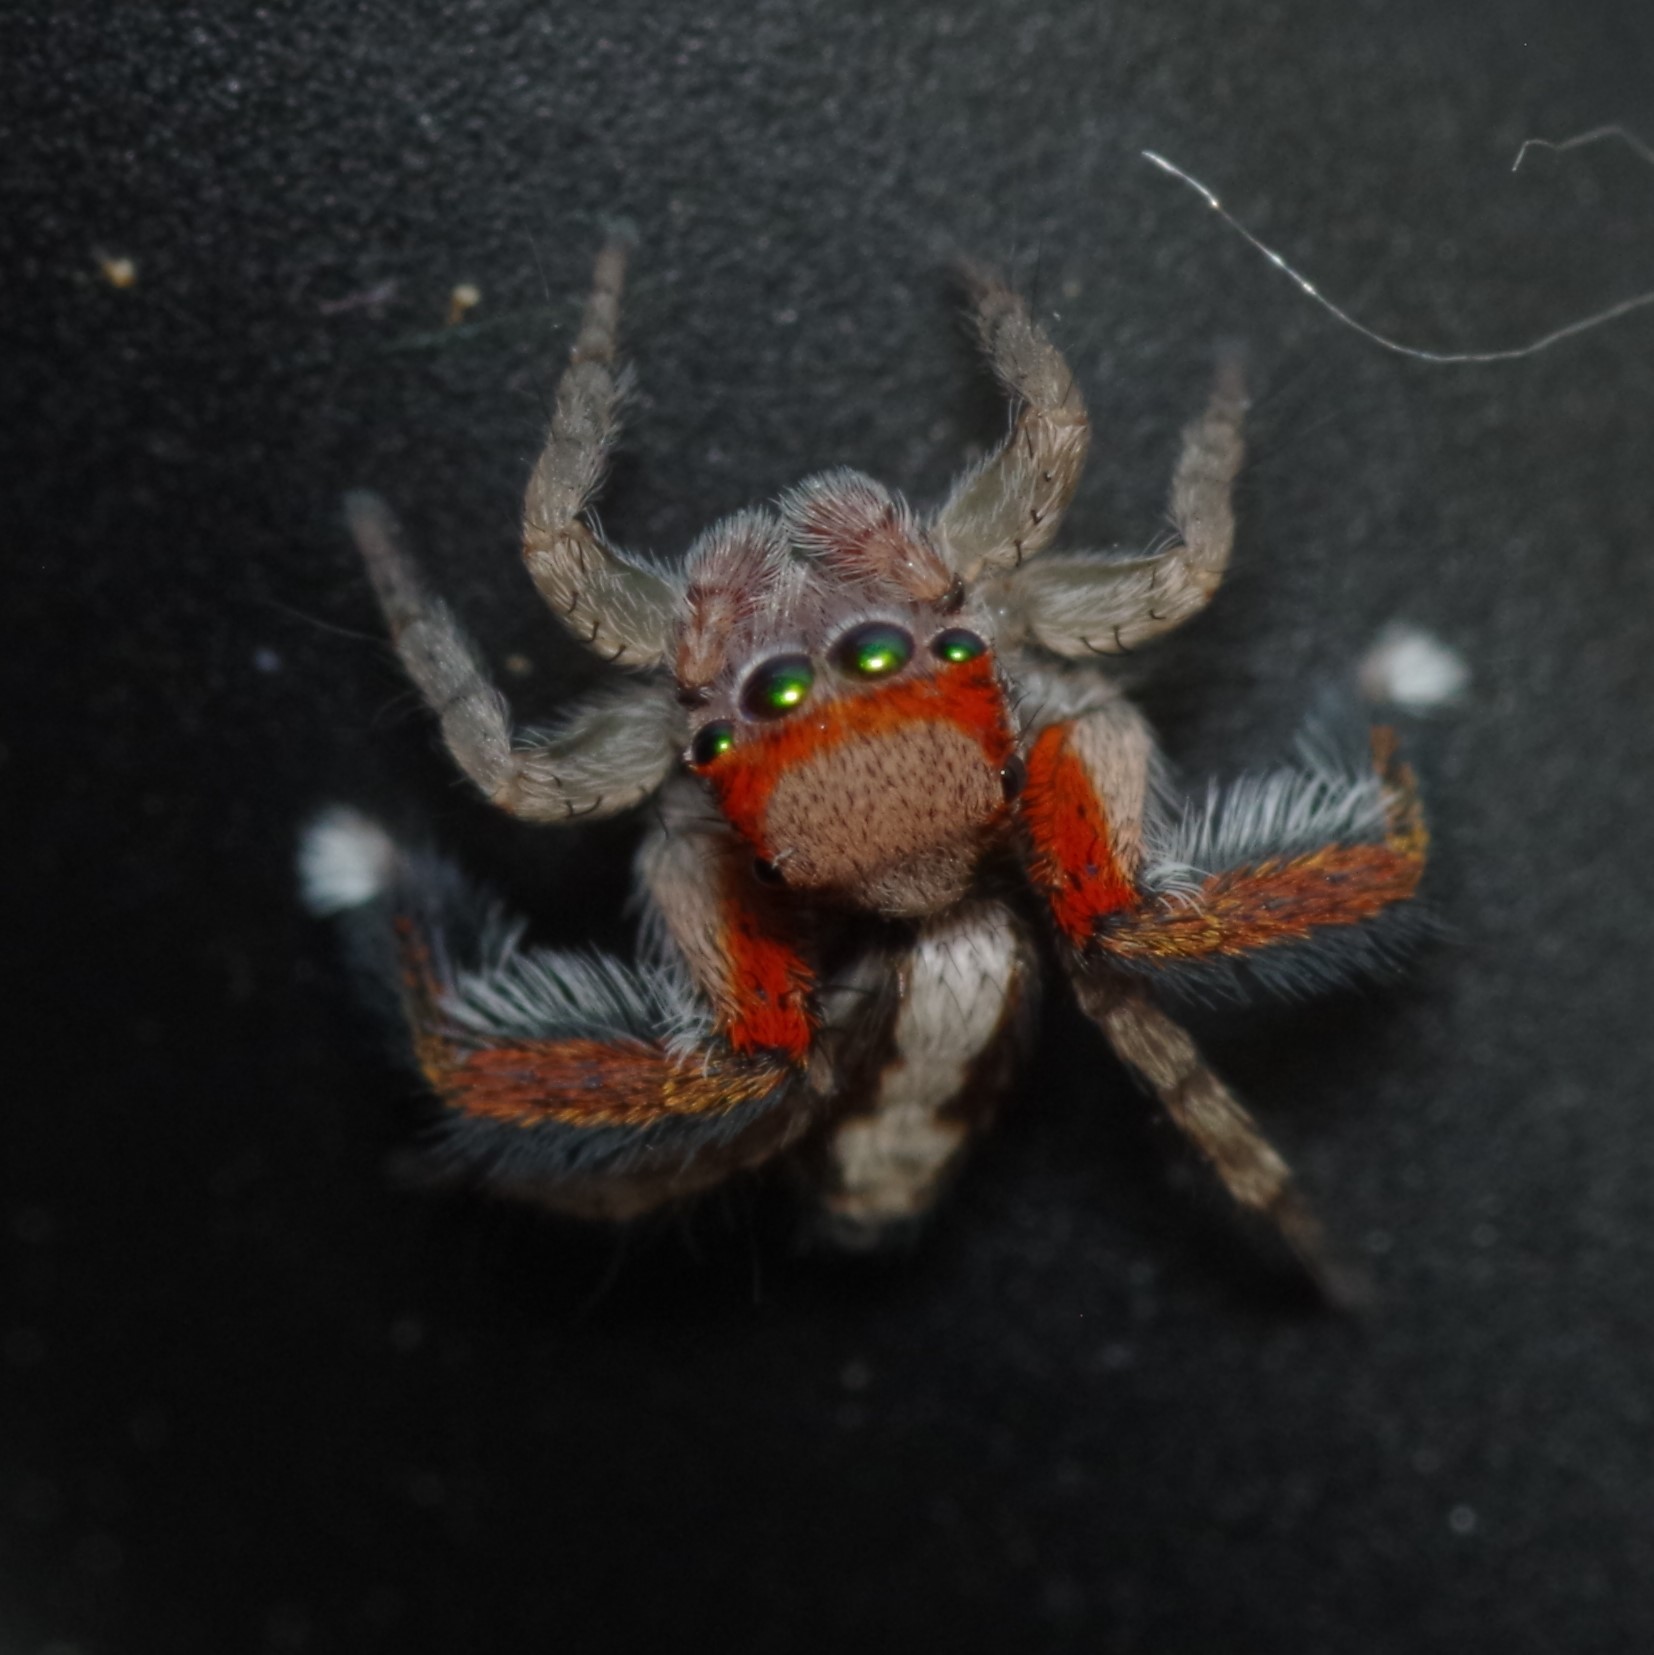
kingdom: Animalia
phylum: Arthropoda
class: Arachnida
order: Araneae
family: Salticidae
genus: Saitis
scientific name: Saitis barbipes
